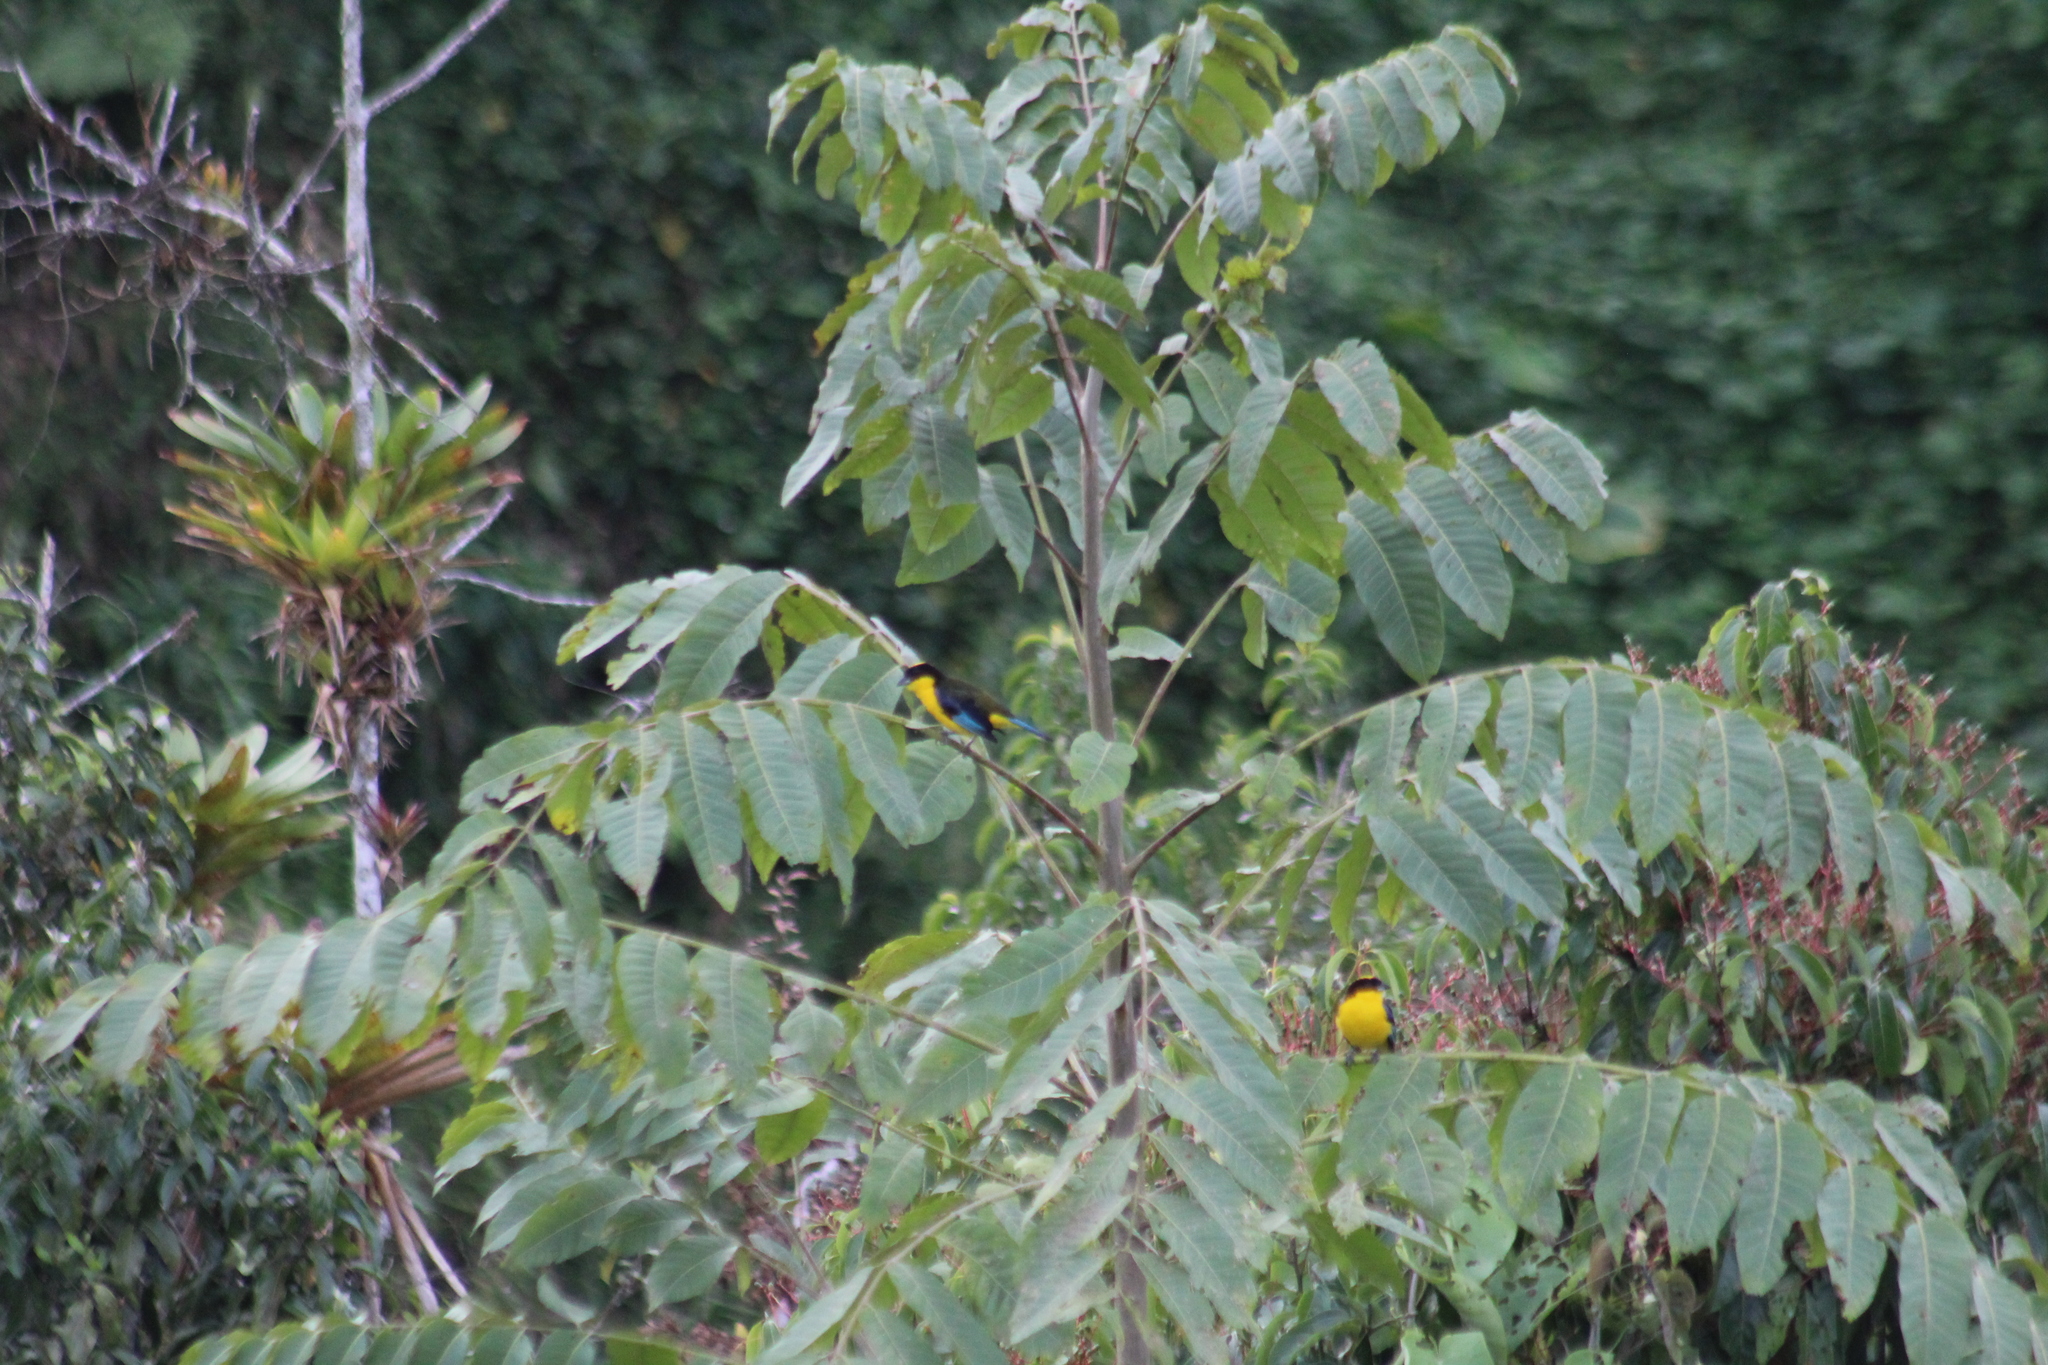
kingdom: Animalia
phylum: Chordata
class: Aves
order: Passeriformes
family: Thraupidae
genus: Anisognathus
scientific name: Anisognathus somptuosus
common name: Blue-winged mountain-tanager
